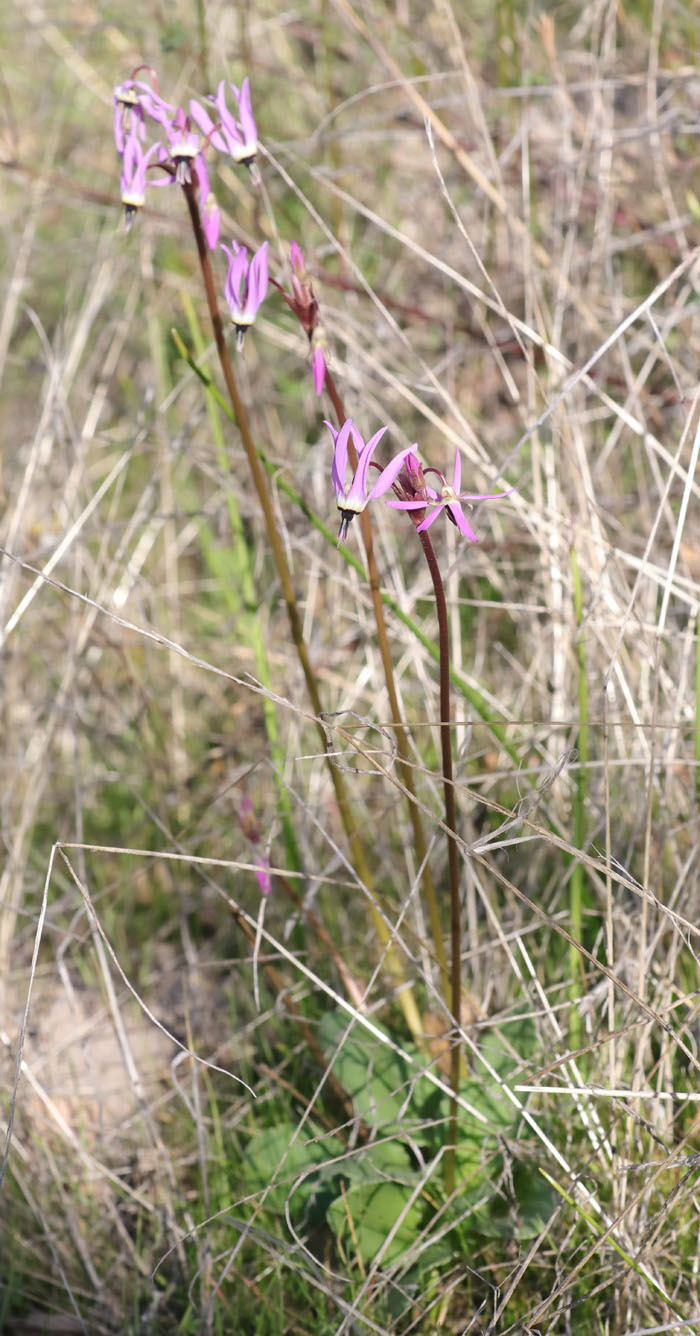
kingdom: Plantae
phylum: Tracheophyta
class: Magnoliopsida
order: Ericales
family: Primulaceae
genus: Dodecatheon
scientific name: Dodecatheon hendersonii
